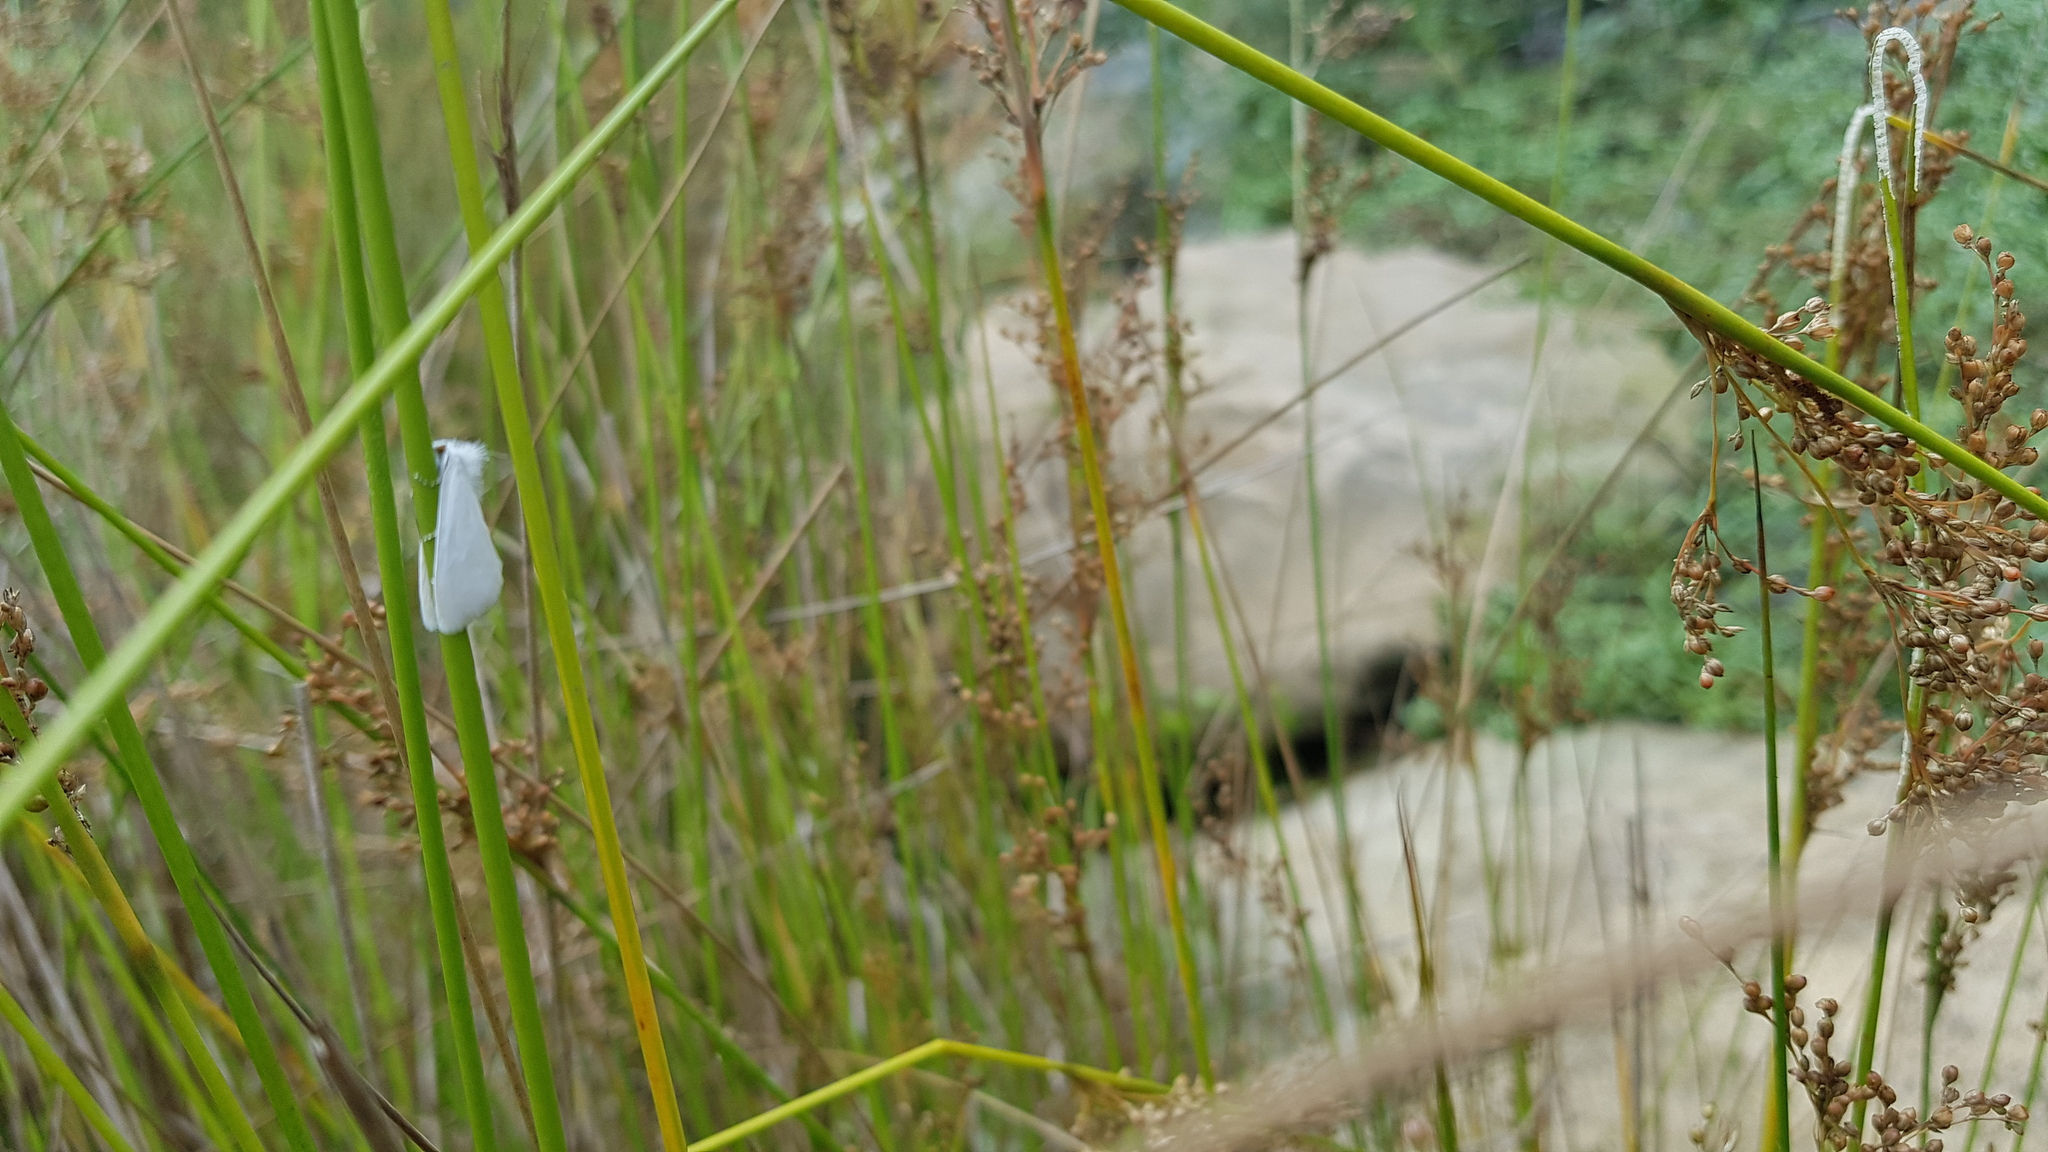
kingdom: Animalia
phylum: Arthropoda
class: Insecta
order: Lepidoptera
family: Crambidae
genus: Tipanaea
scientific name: Tipanaea patulella
